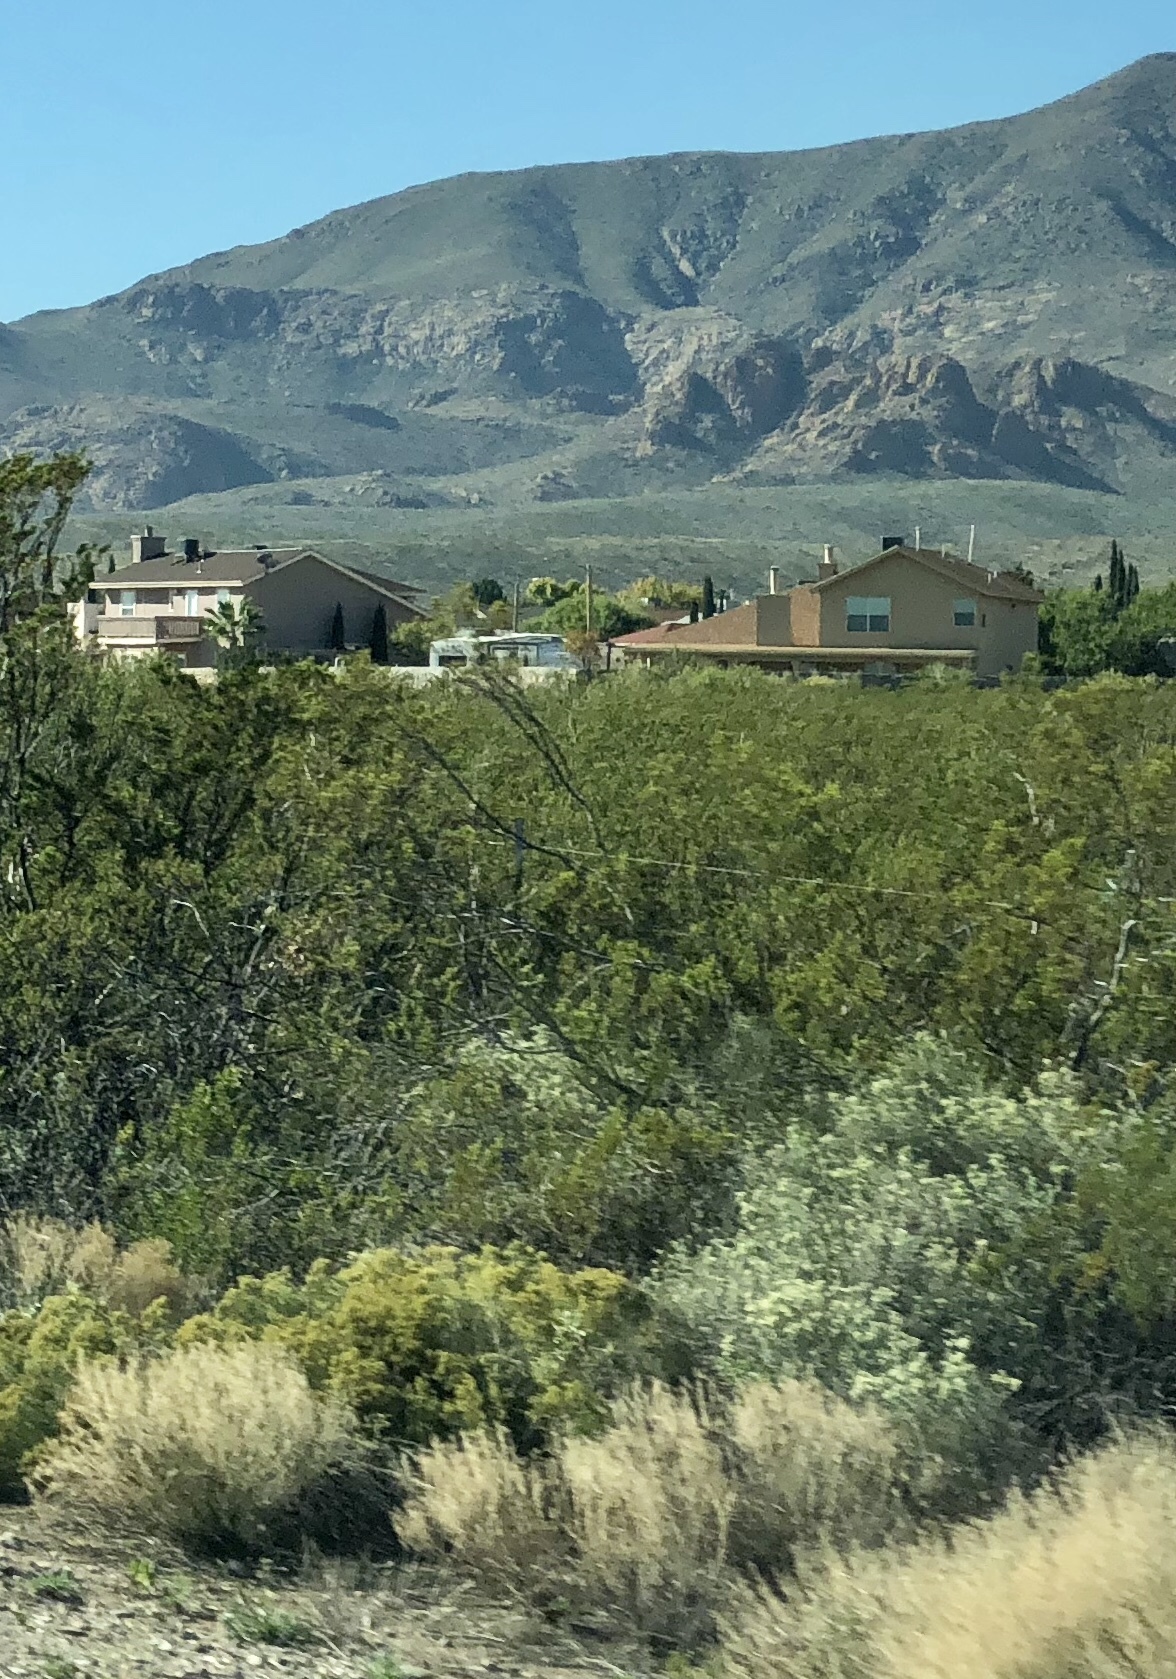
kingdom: Plantae
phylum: Tracheophyta
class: Magnoliopsida
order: Zygophyllales
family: Zygophyllaceae
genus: Larrea
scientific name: Larrea tridentata
